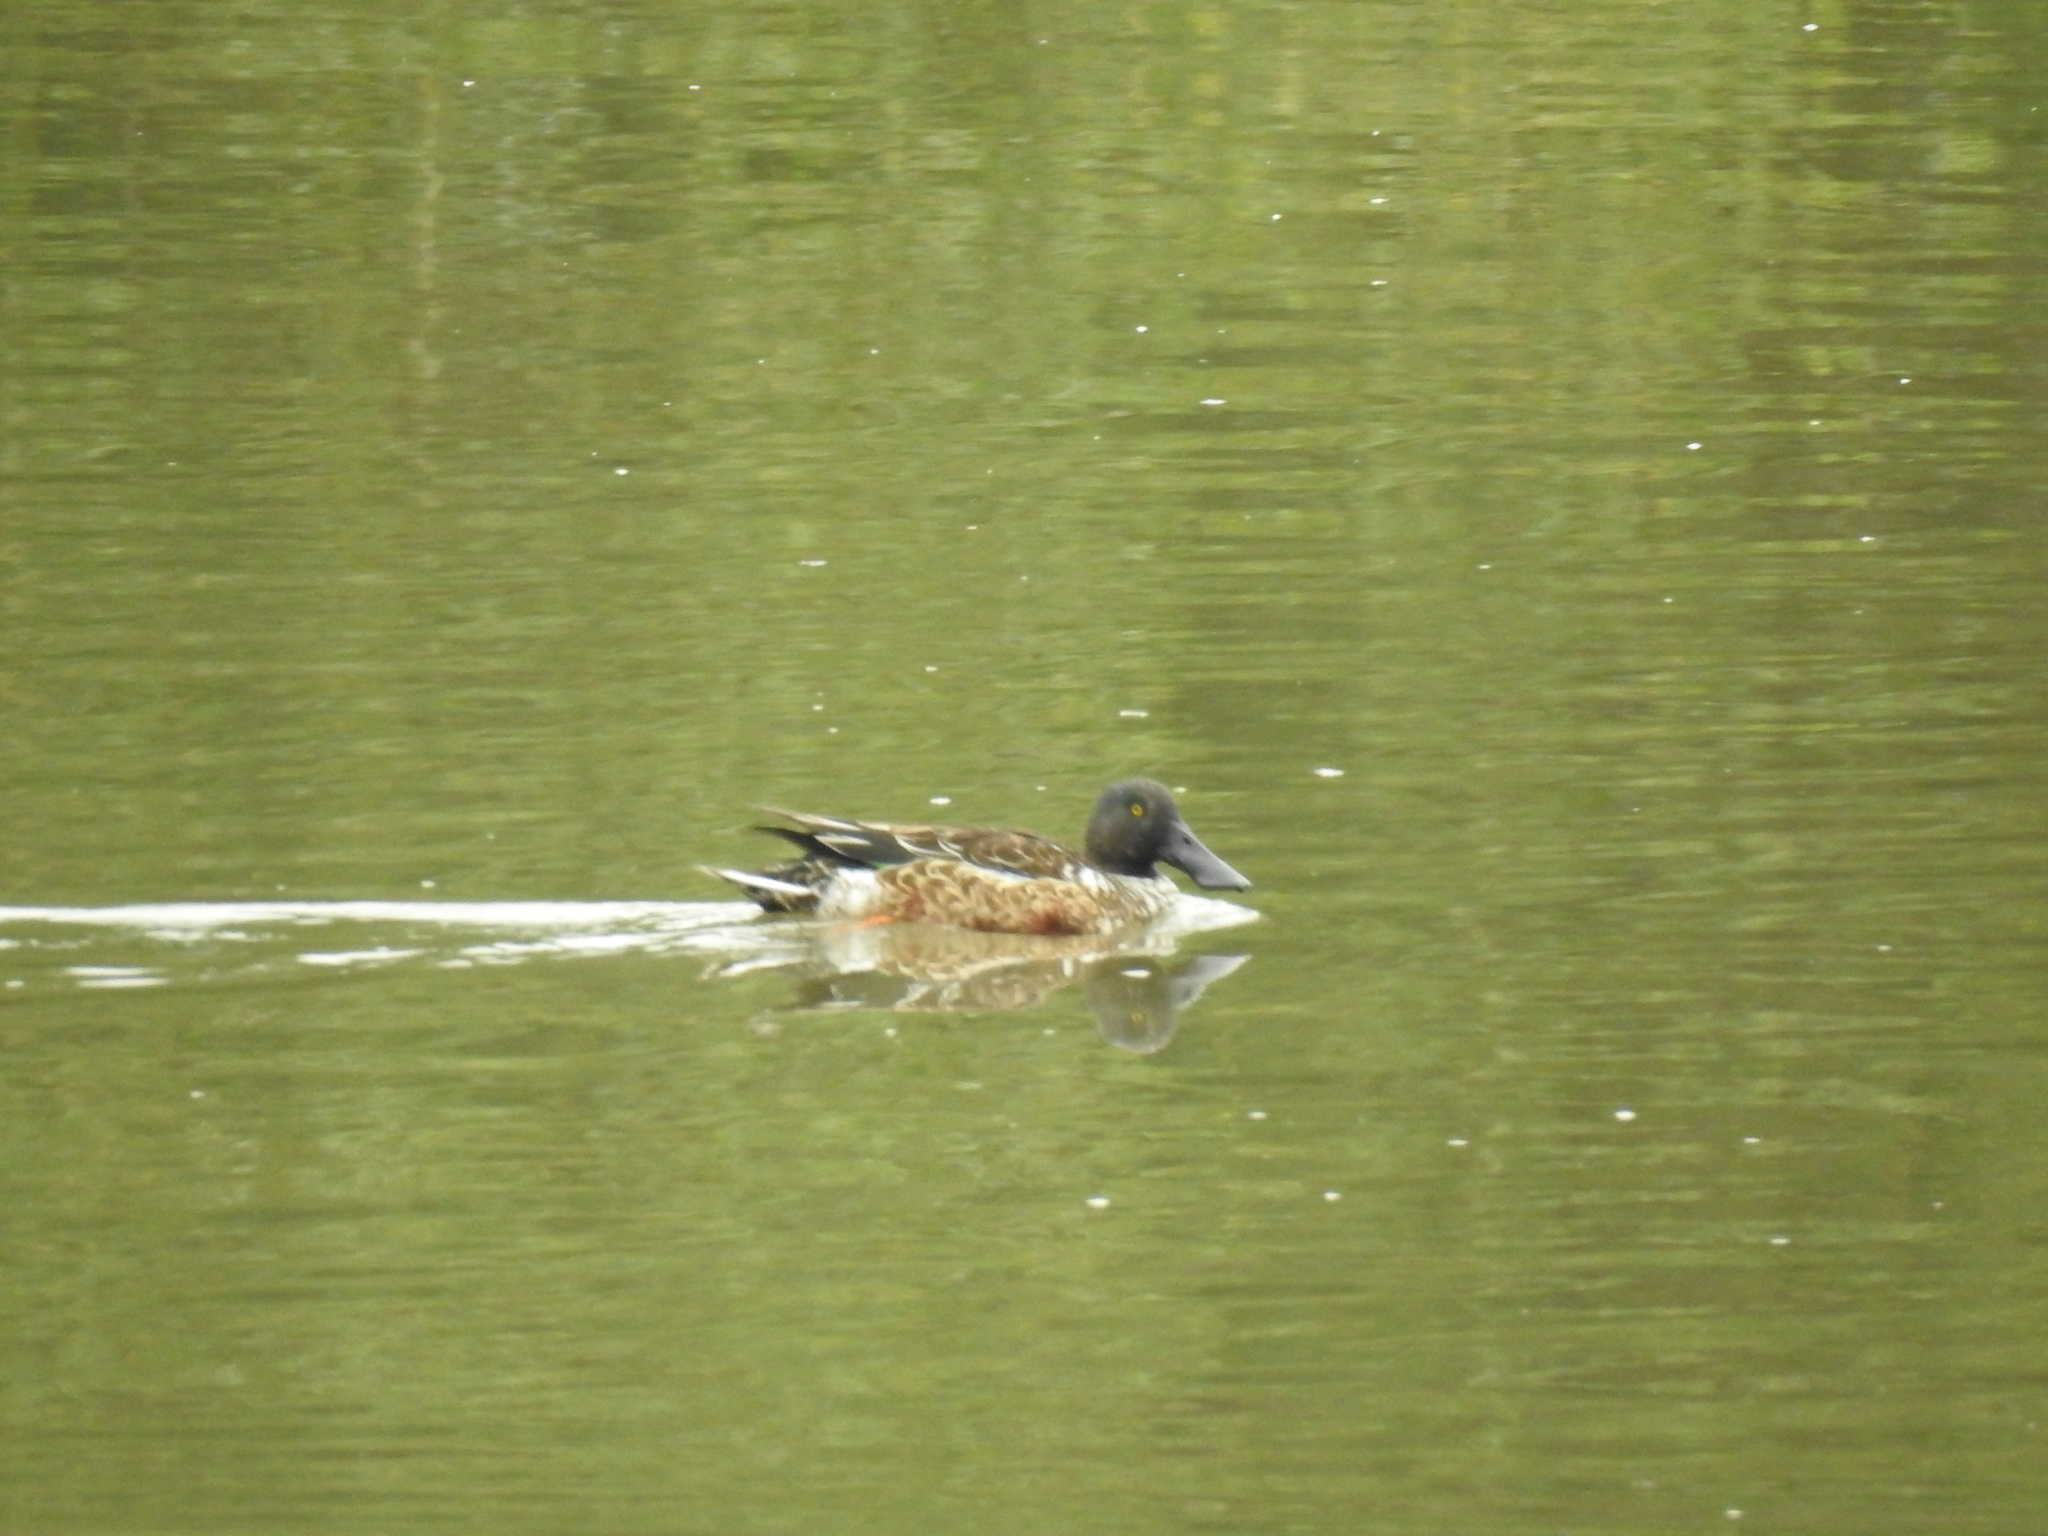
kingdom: Animalia
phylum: Chordata
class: Aves
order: Anseriformes
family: Anatidae
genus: Spatula
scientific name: Spatula clypeata
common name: Northern shoveler
